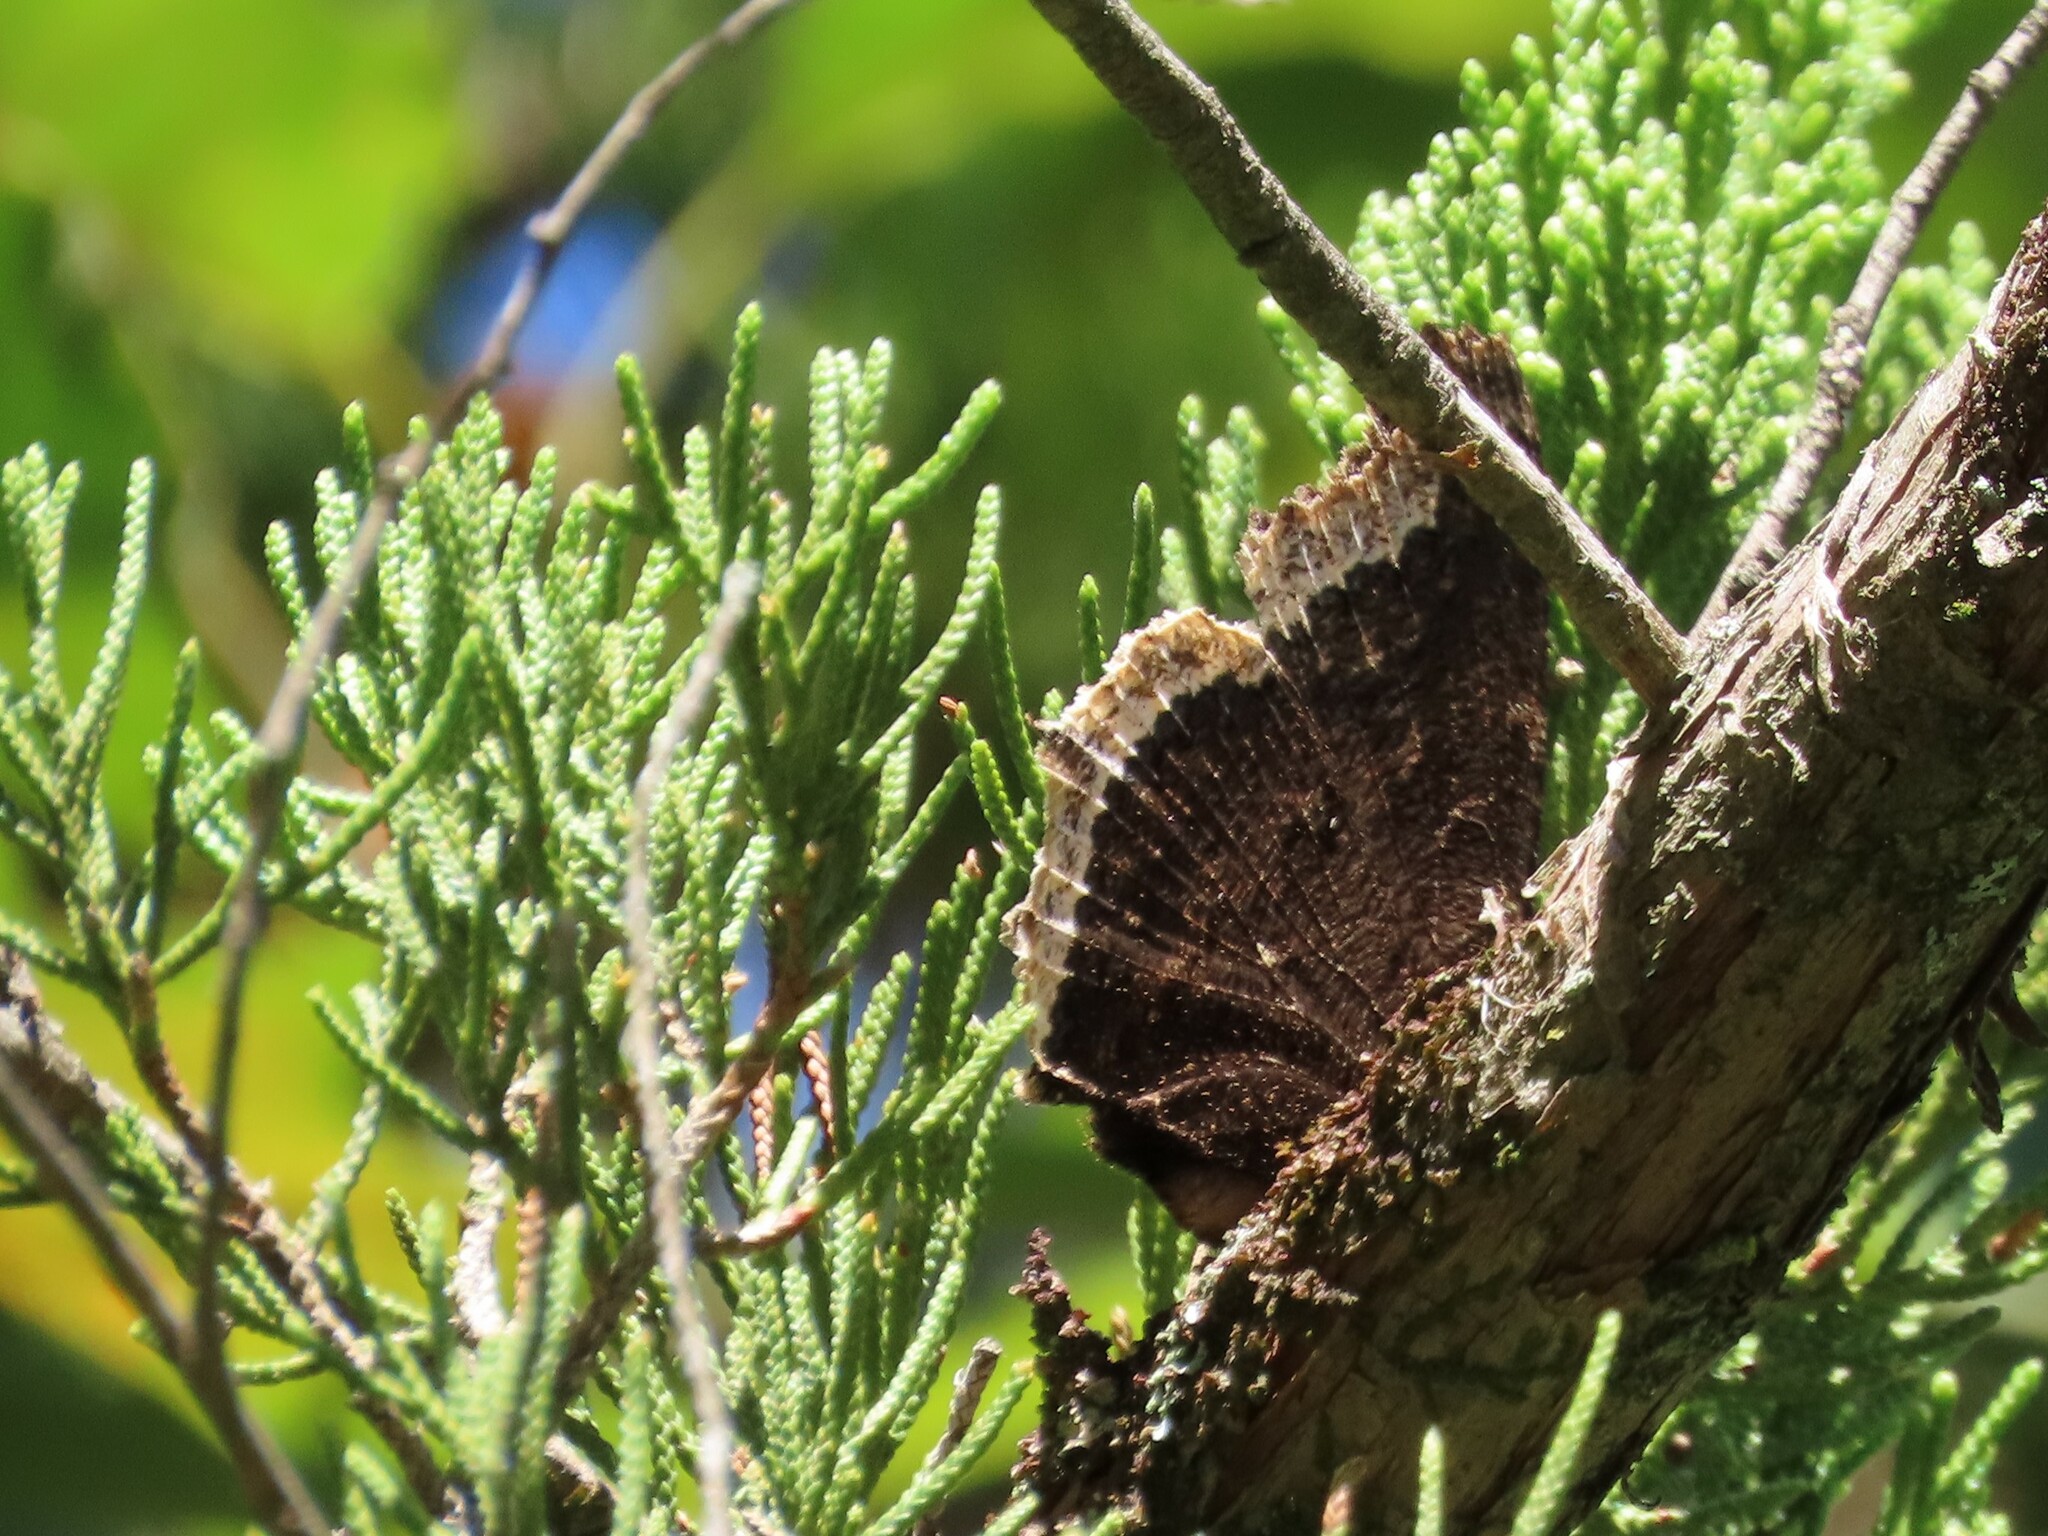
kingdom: Animalia
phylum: Arthropoda
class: Insecta
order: Lepidoptera
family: Nymphalidae
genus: Nymphalis
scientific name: Nymphalis antiopa
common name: Camberwell beauty
